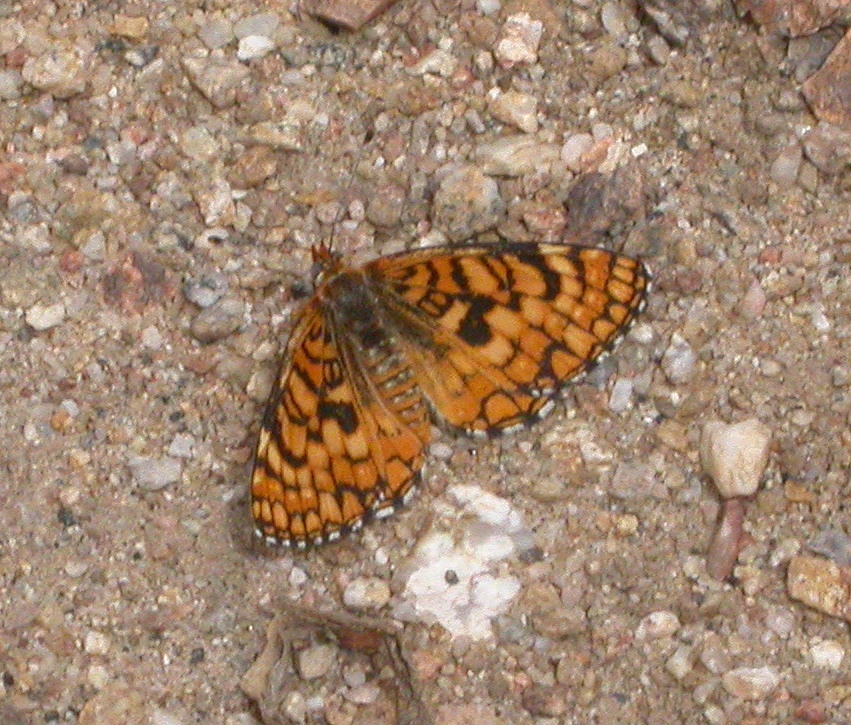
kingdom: Animalia
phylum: Arthropoda
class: Insecta
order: Lepidoptera
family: Nymphalidae
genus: Poladryas
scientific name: Poladryas minuta
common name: Dotted checkerspot
